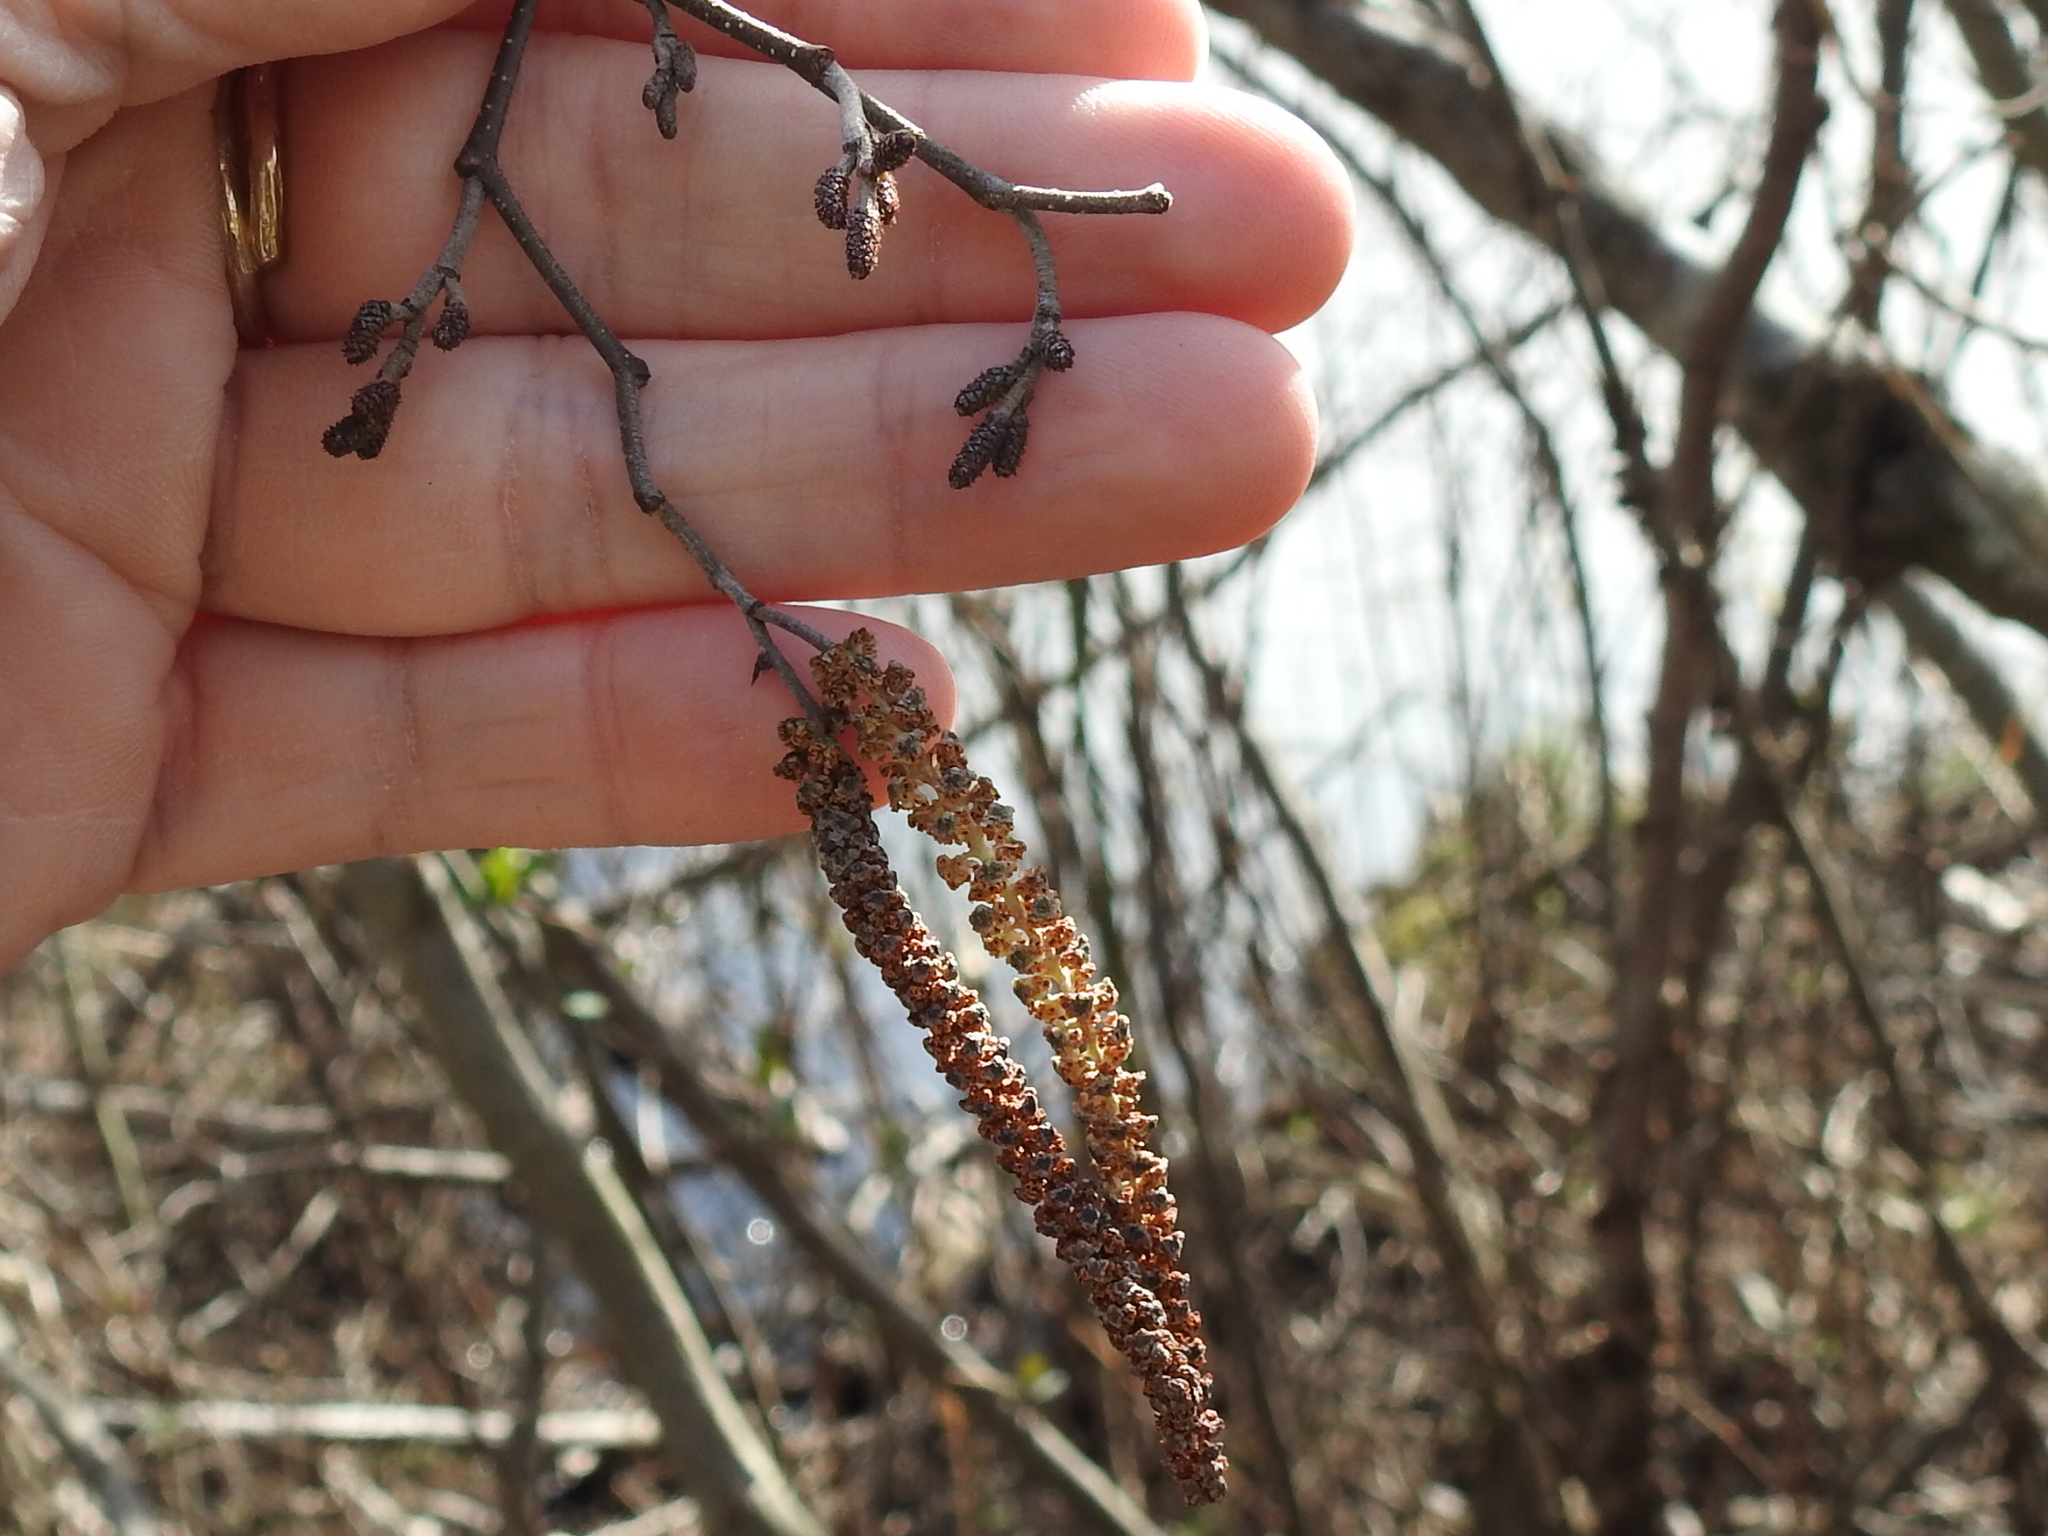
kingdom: Plantae
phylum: Tracheophyta
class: Magnoliopsida
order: Fagales
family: Betulaceae
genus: Alnus
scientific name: Alnus serrulata
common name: Hazel alder
